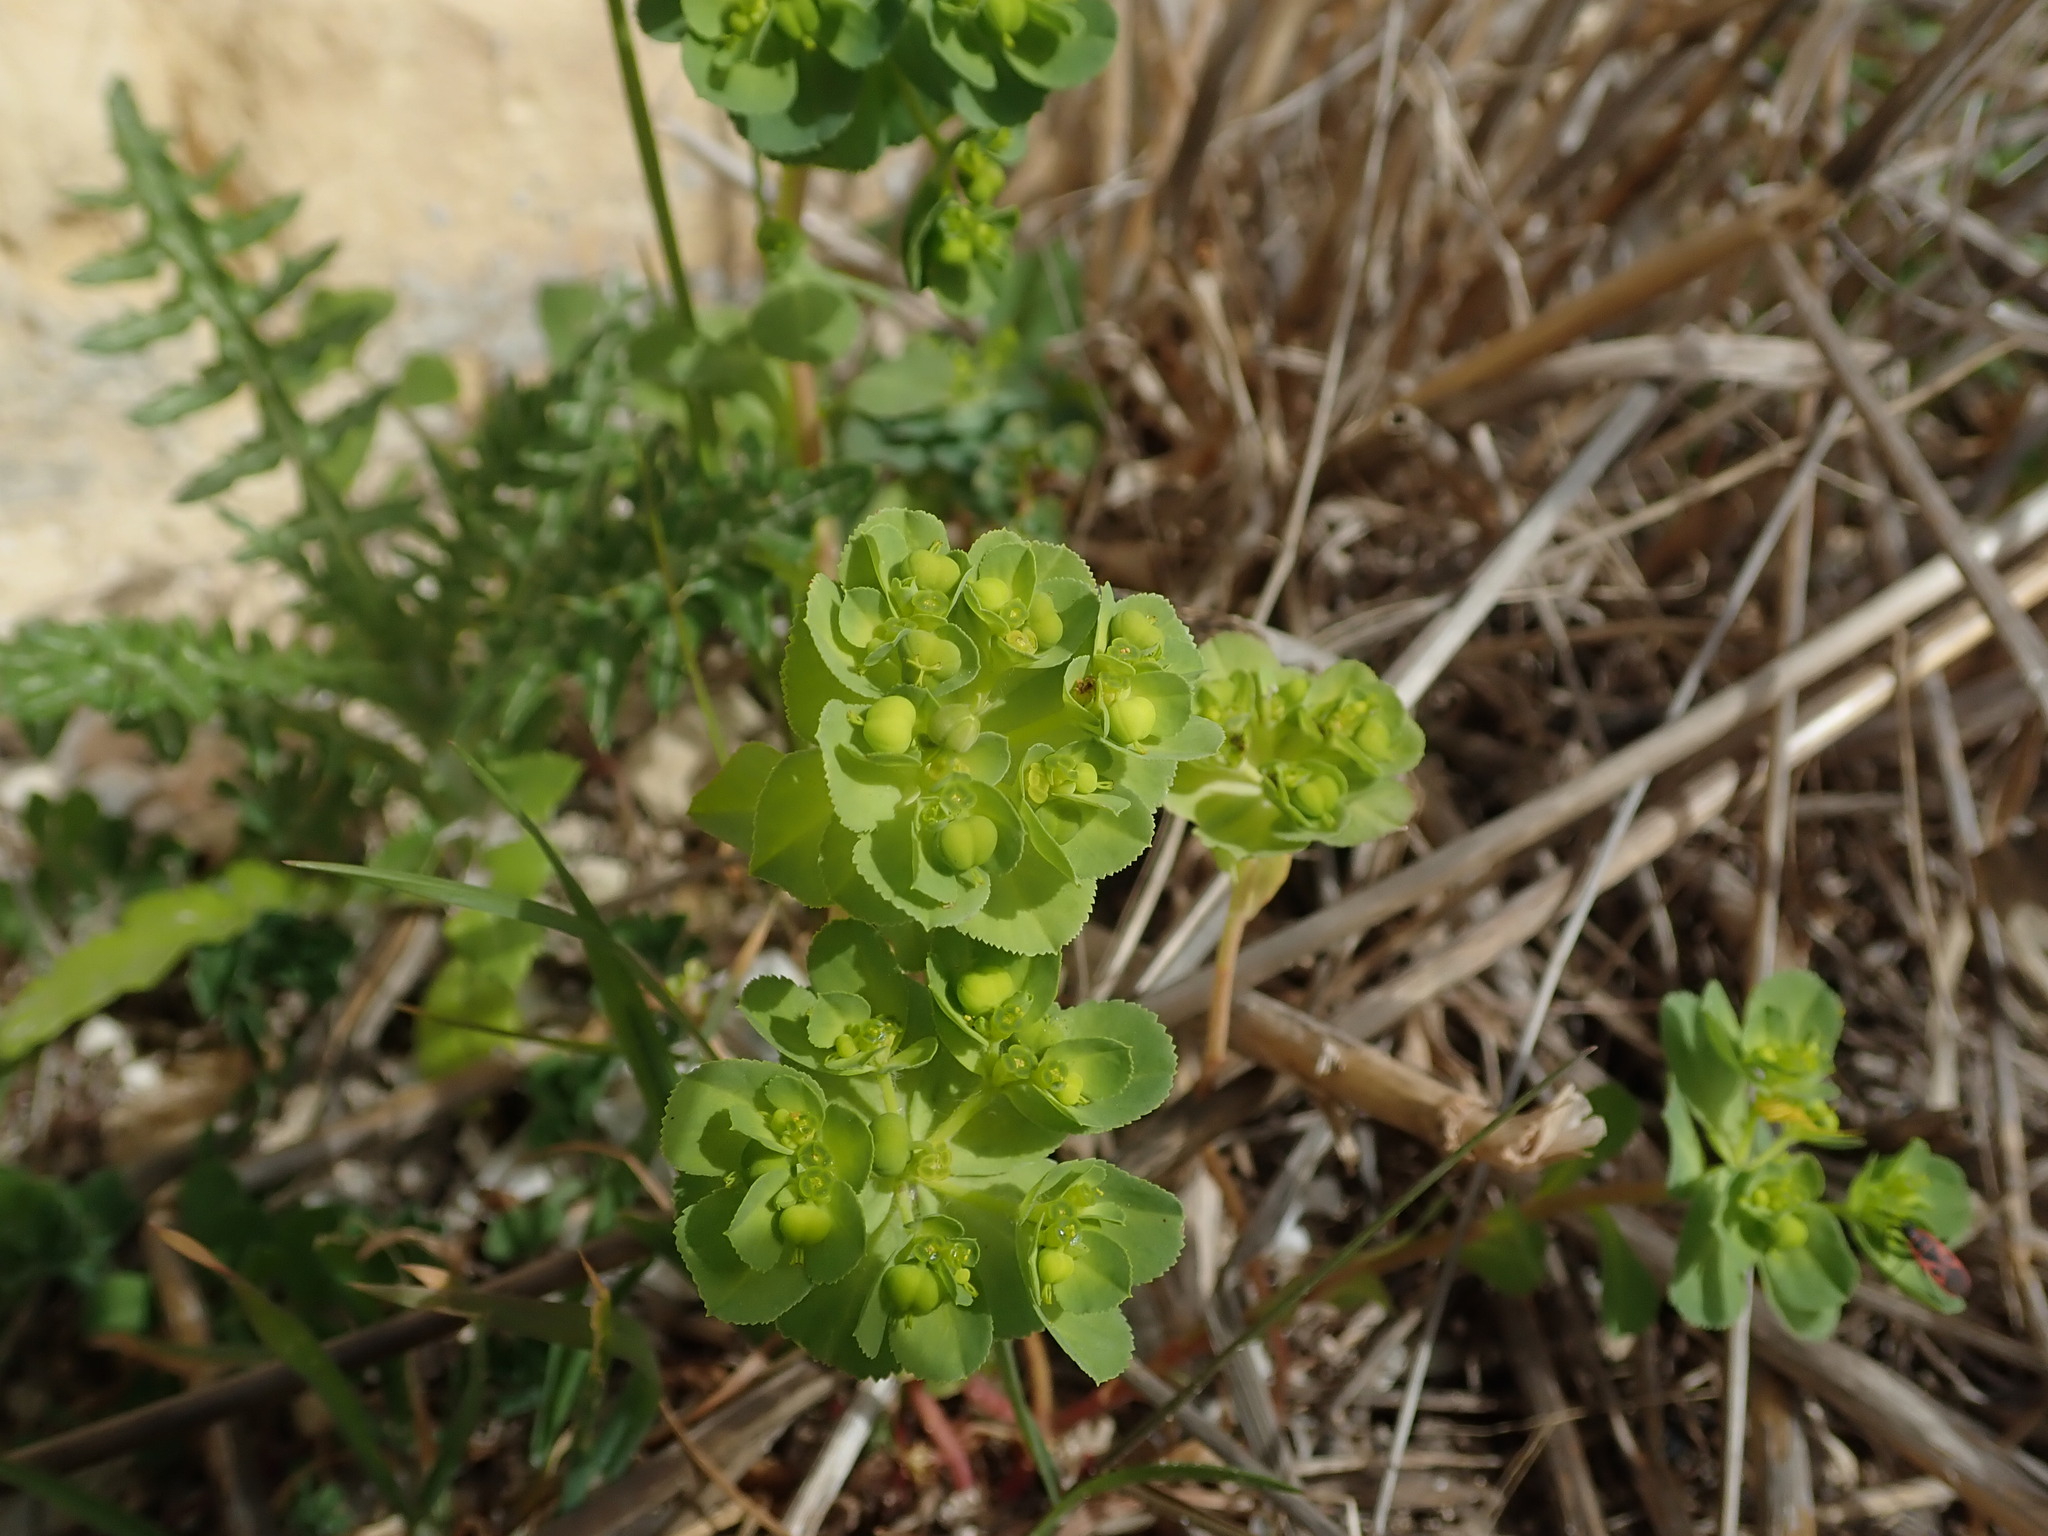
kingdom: Plantae
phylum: Tracheophyta
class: Magnoliopsida
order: Malpighiales
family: Euphorbiaceae
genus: Euphorbia
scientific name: Euphorbia helioscopia
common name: Sun spurge
